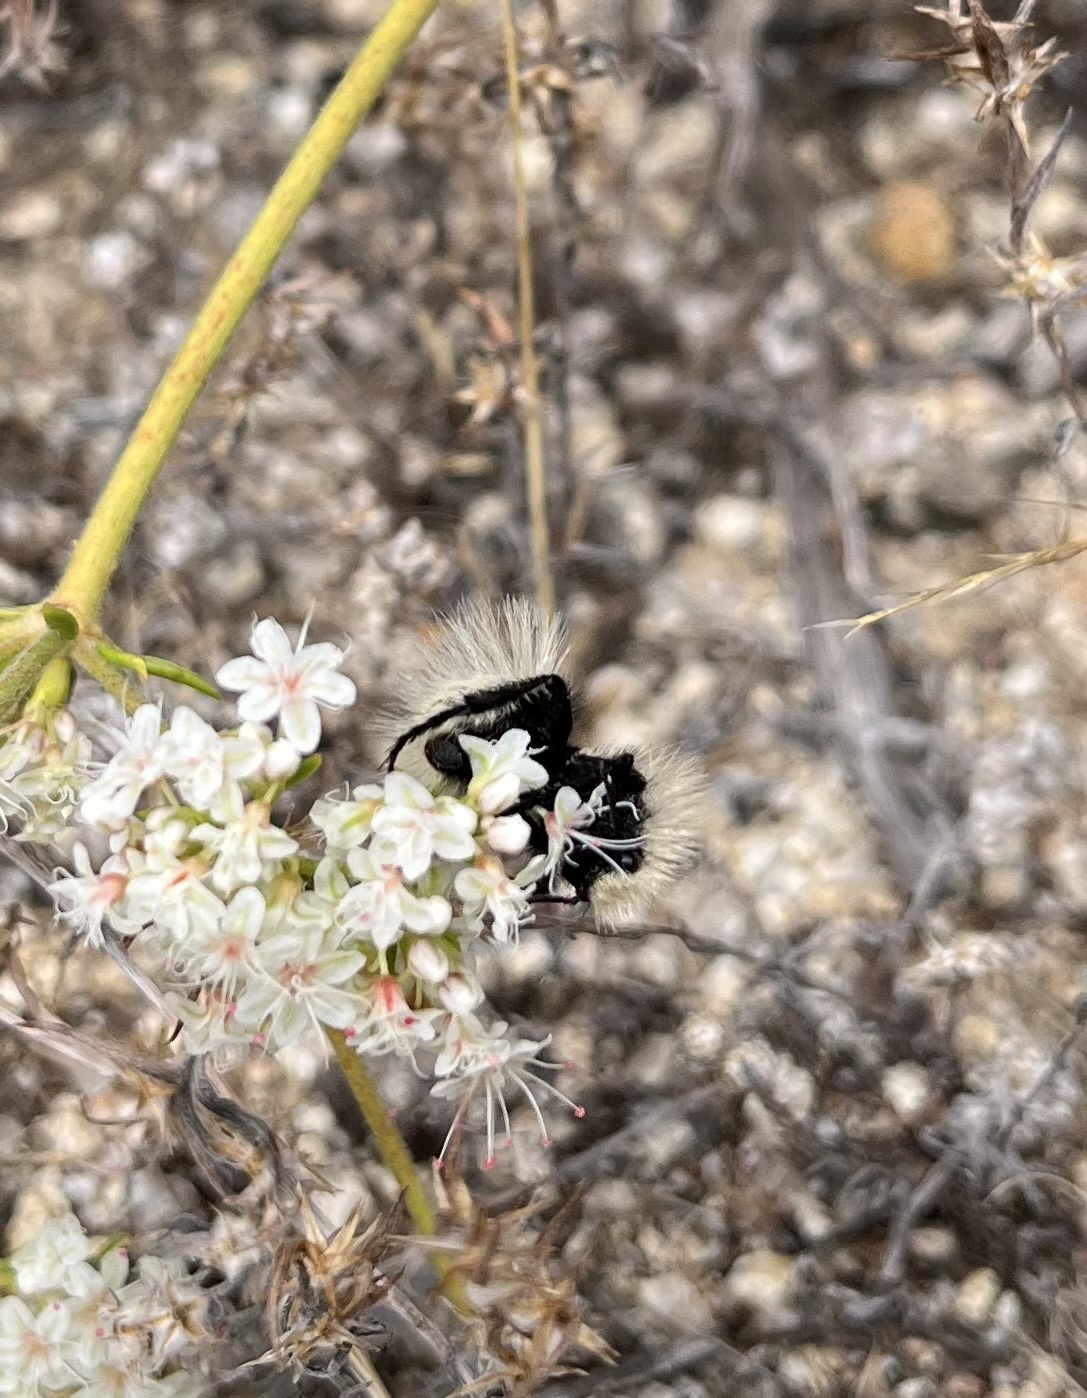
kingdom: Animalia
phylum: Arthropoda
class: Insecta
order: Hymenoptera
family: Mutillidae
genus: Dasymutilla
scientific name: Dasymutilla
